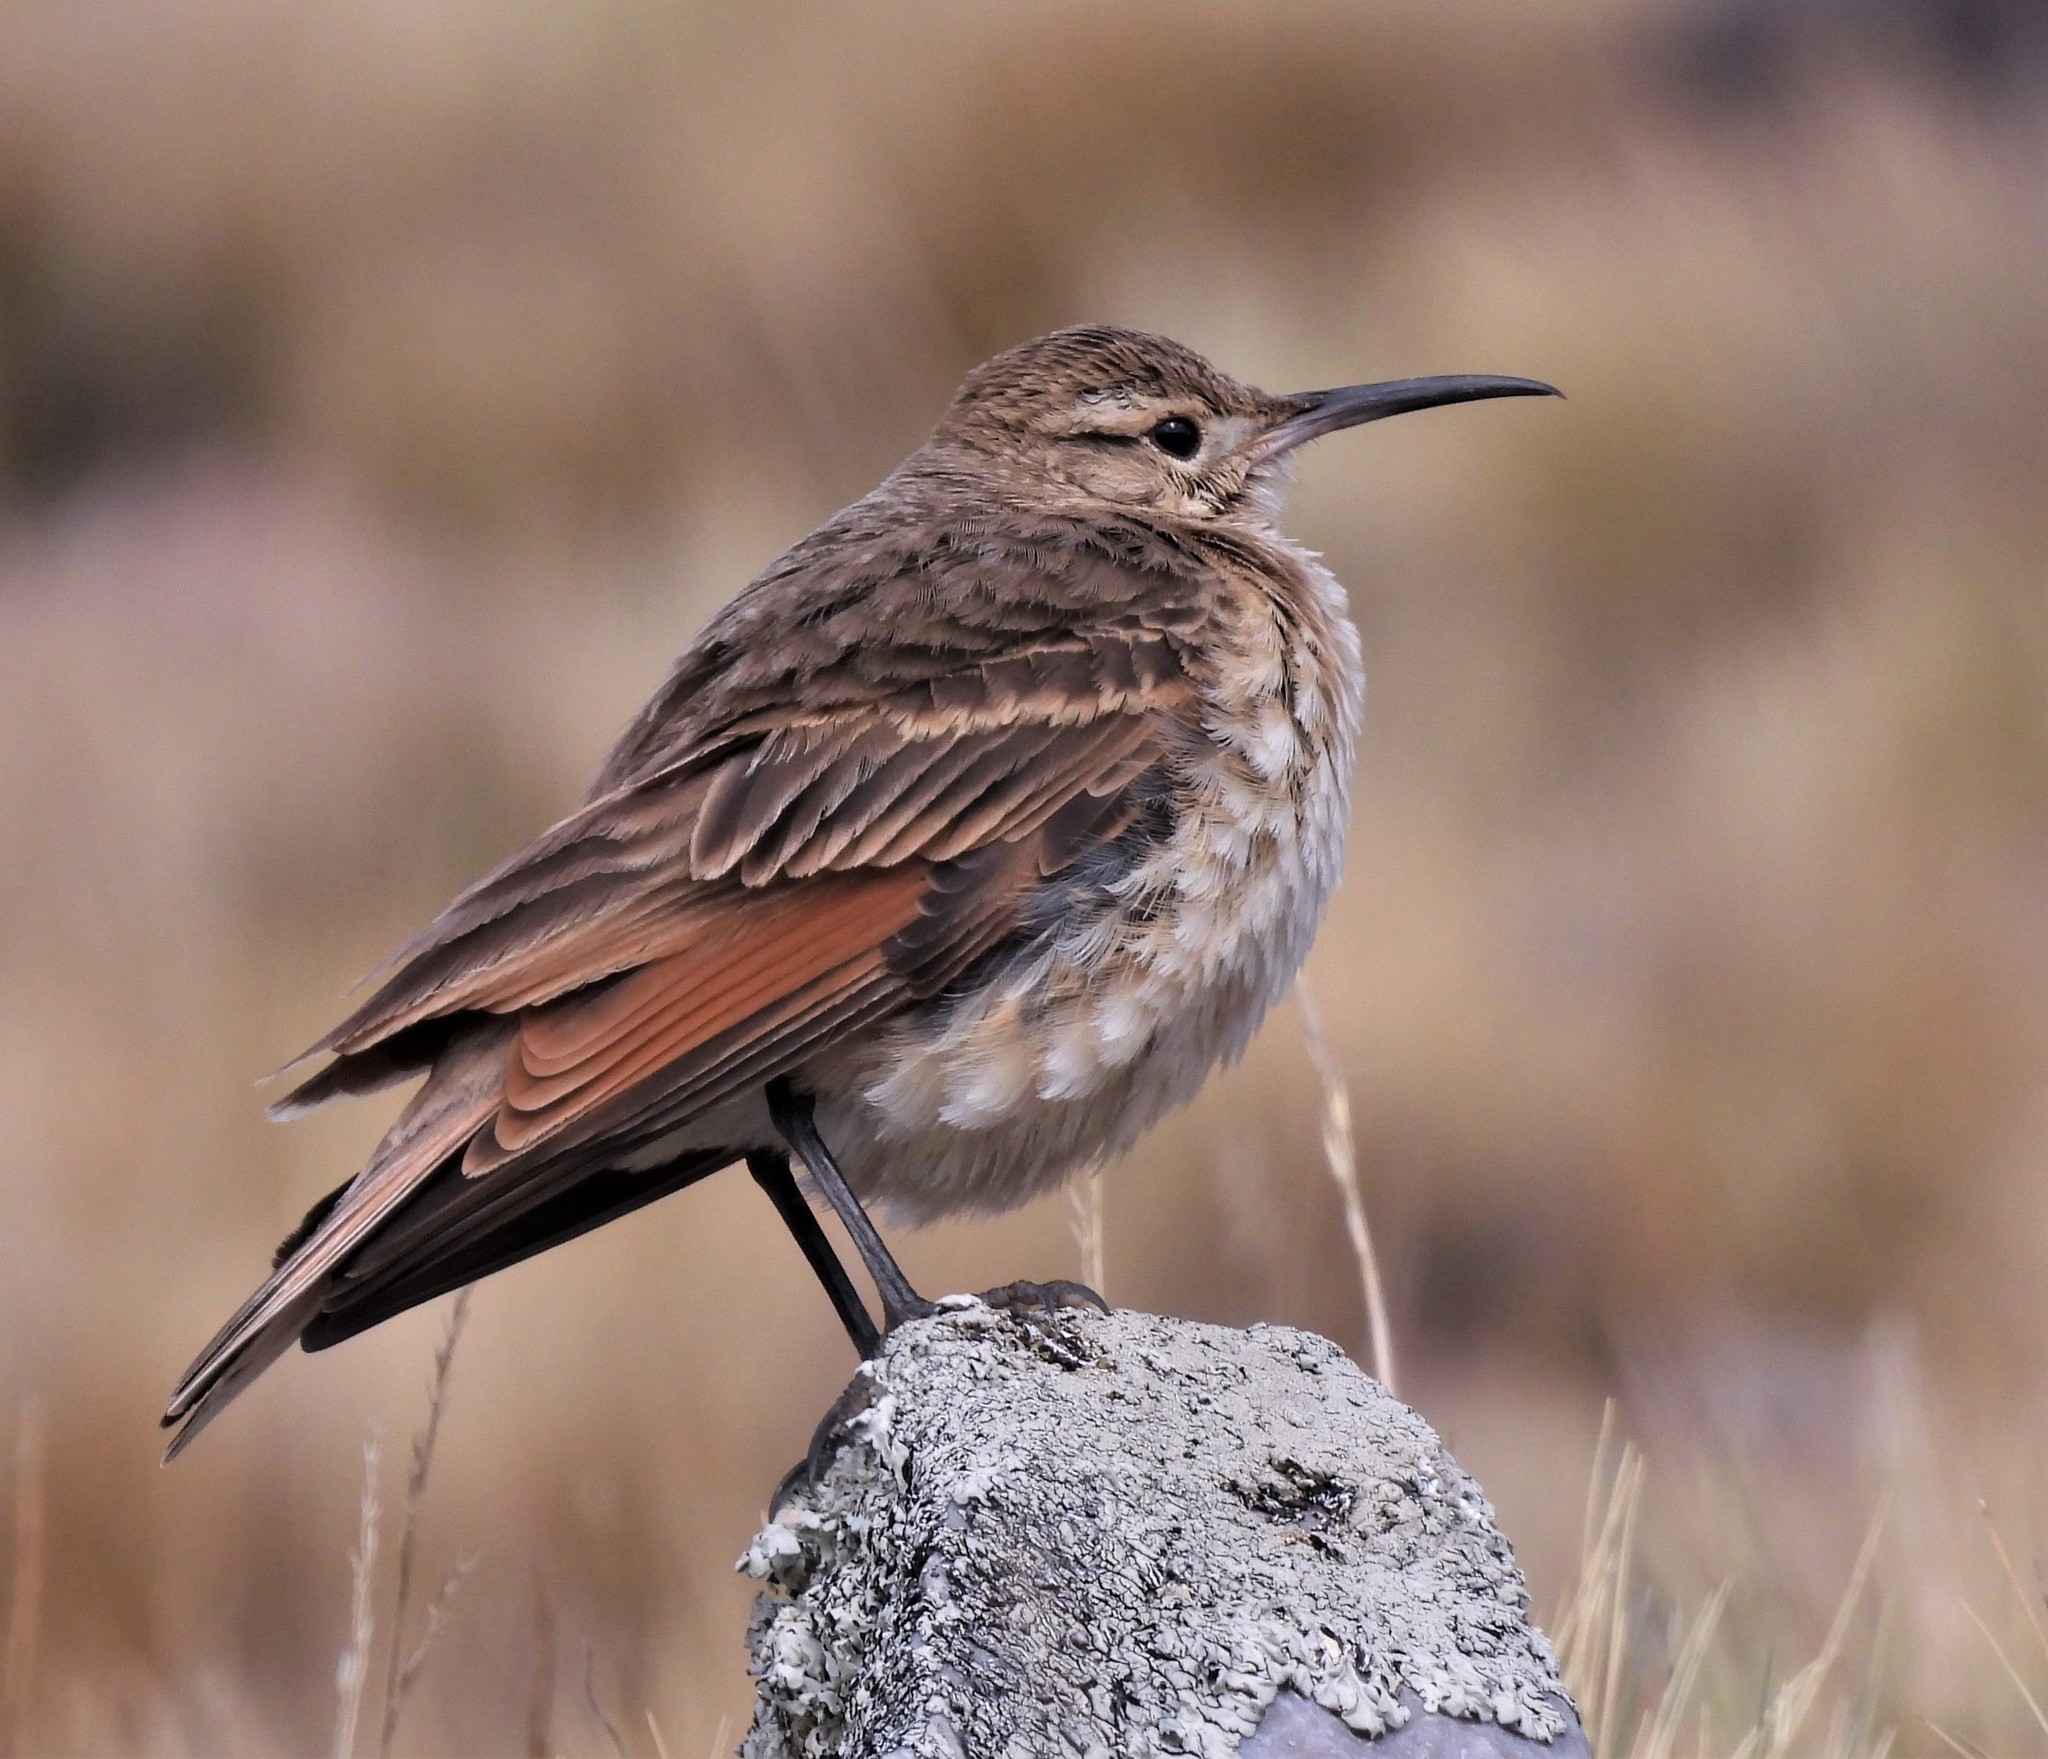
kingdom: Animalia
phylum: Chordata
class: Aves
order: Passeriformes
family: Furnariidae
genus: Geositta
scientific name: Geositta tenuirostris
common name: Slender-billed miner
